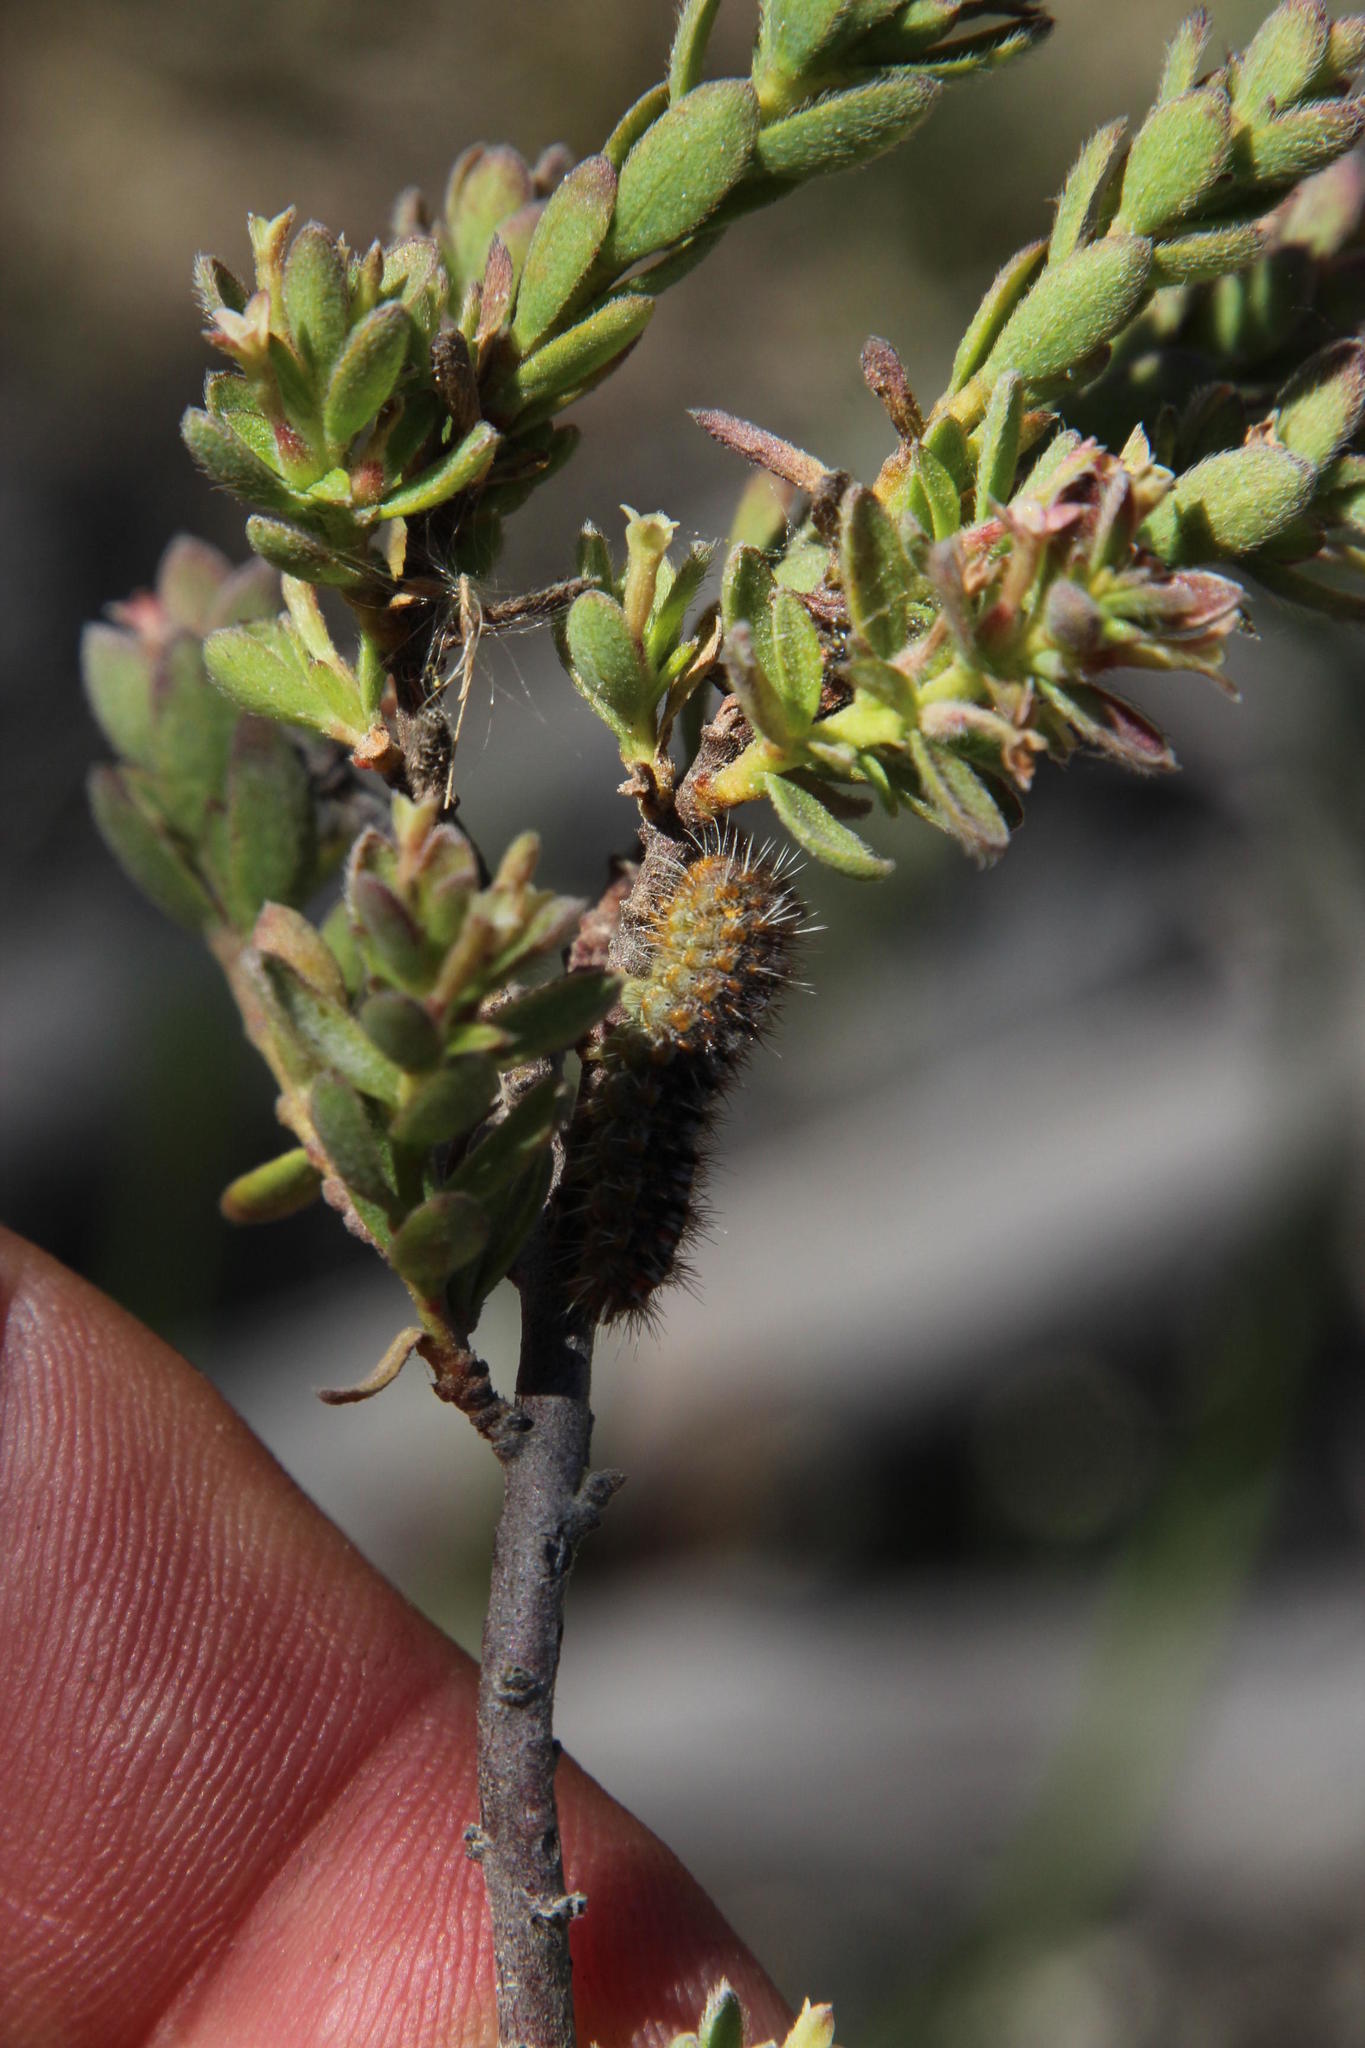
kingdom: Plantae
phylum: Tracheophyta
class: Magnoliopsida
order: Malvales
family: Thymelaeaceae
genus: Gnidia
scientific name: Gnidia spicata
